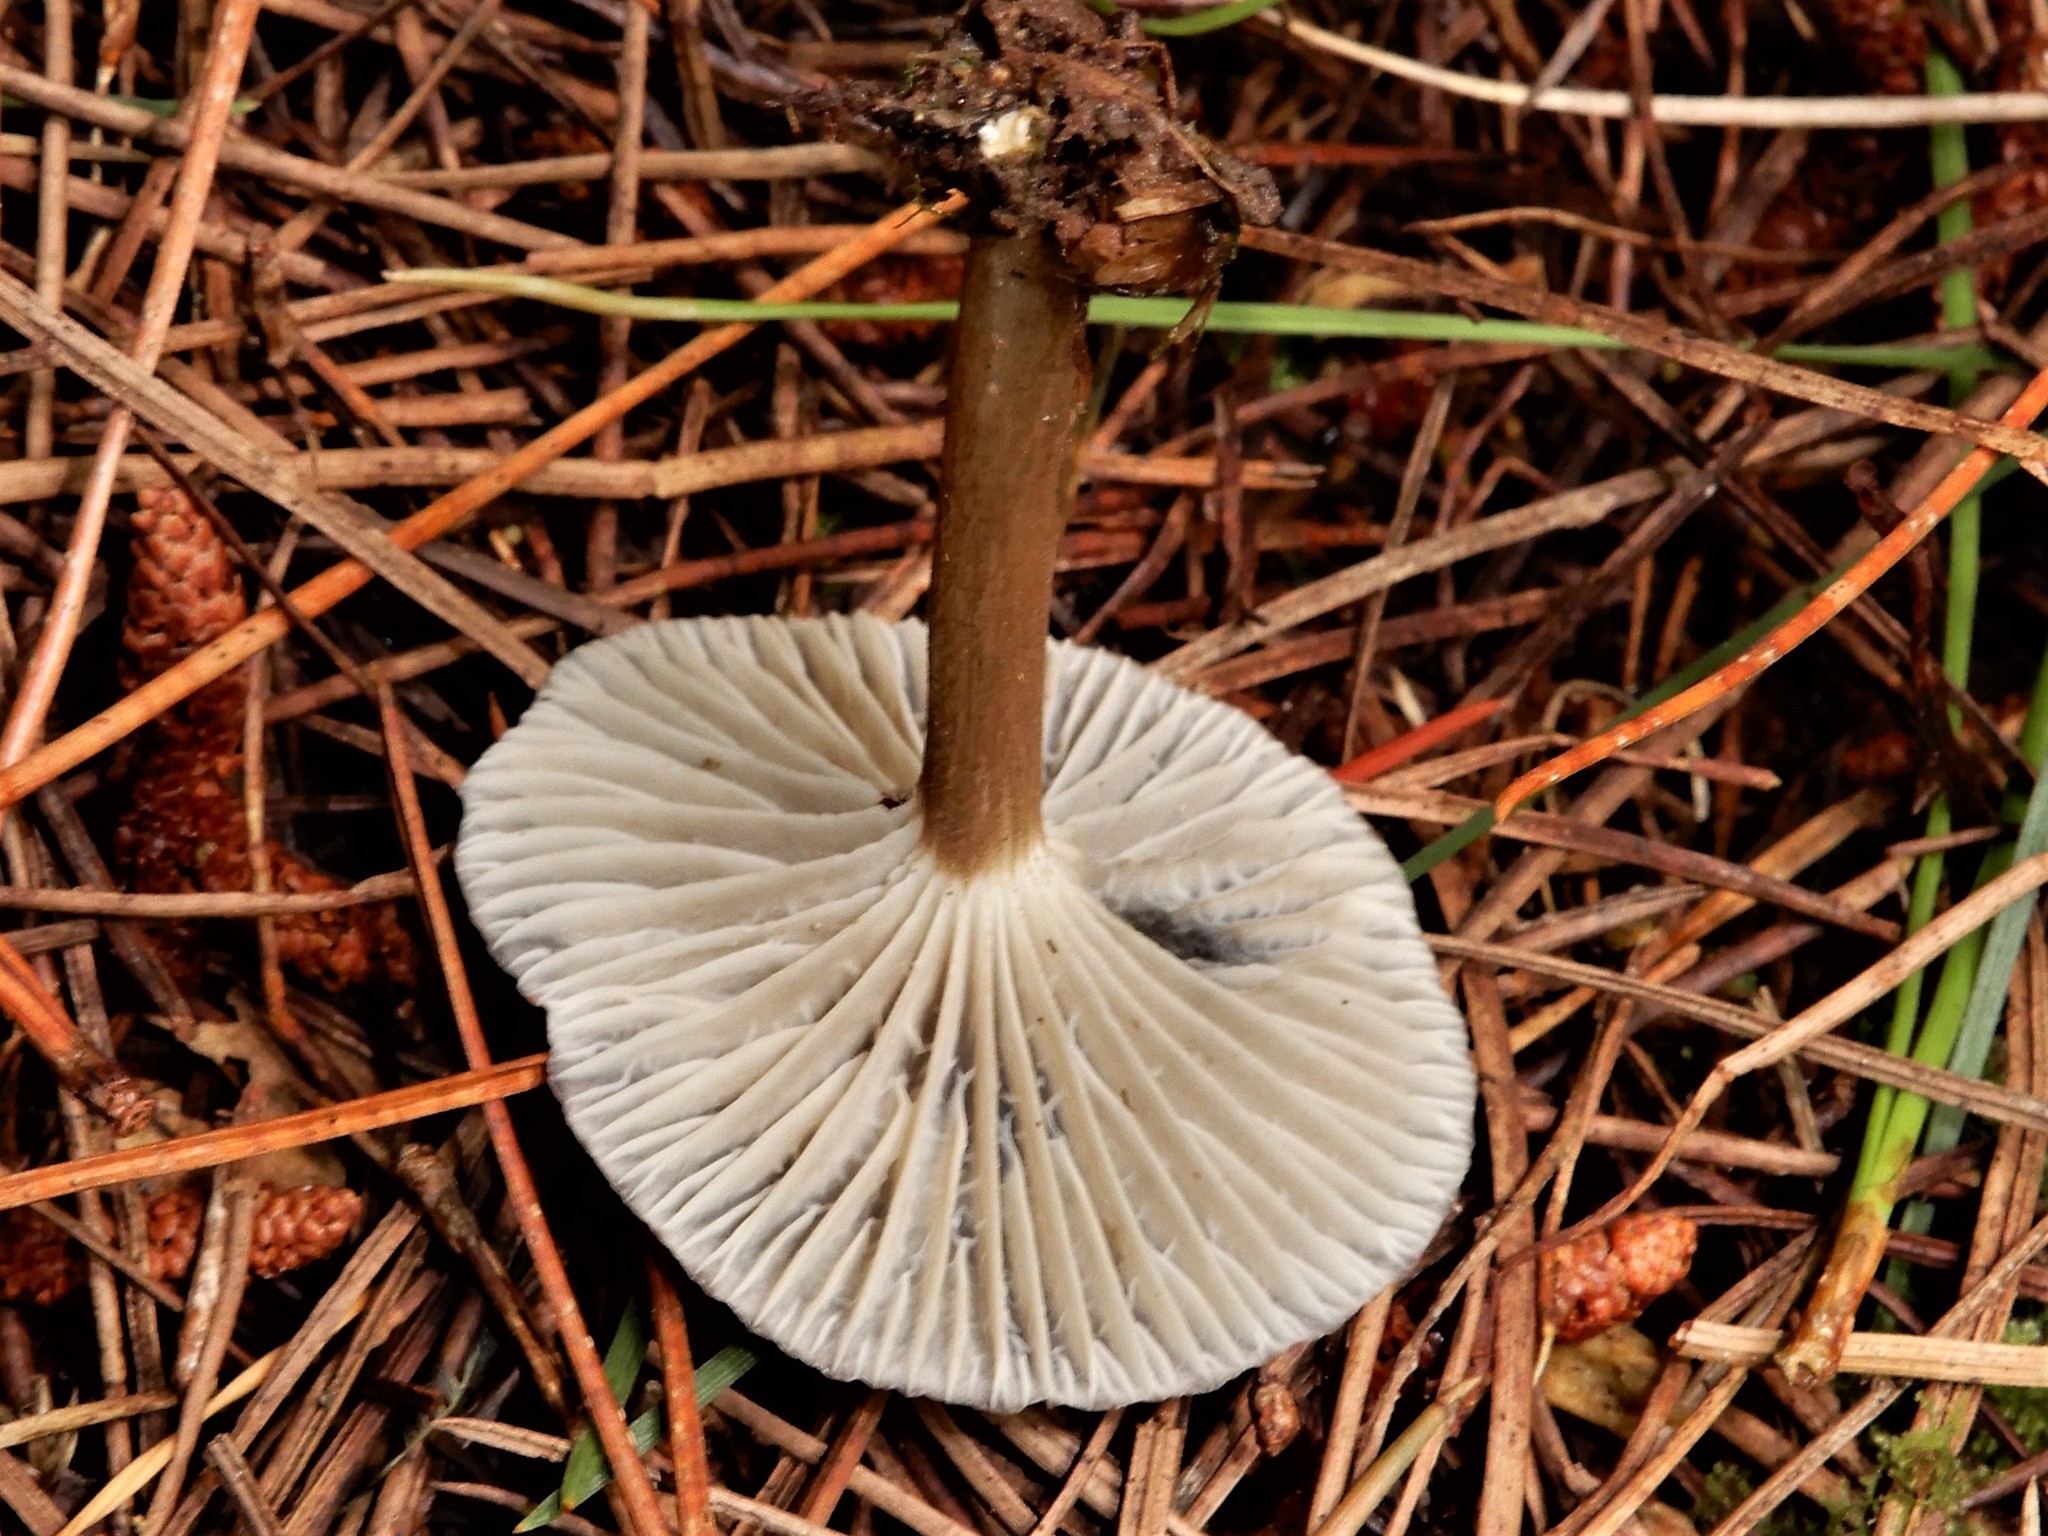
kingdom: Fungi
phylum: Basidiomycota
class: Agaricomycetes
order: Agaricales
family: Marasmiaceae
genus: Gerronema
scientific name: Gerronema
